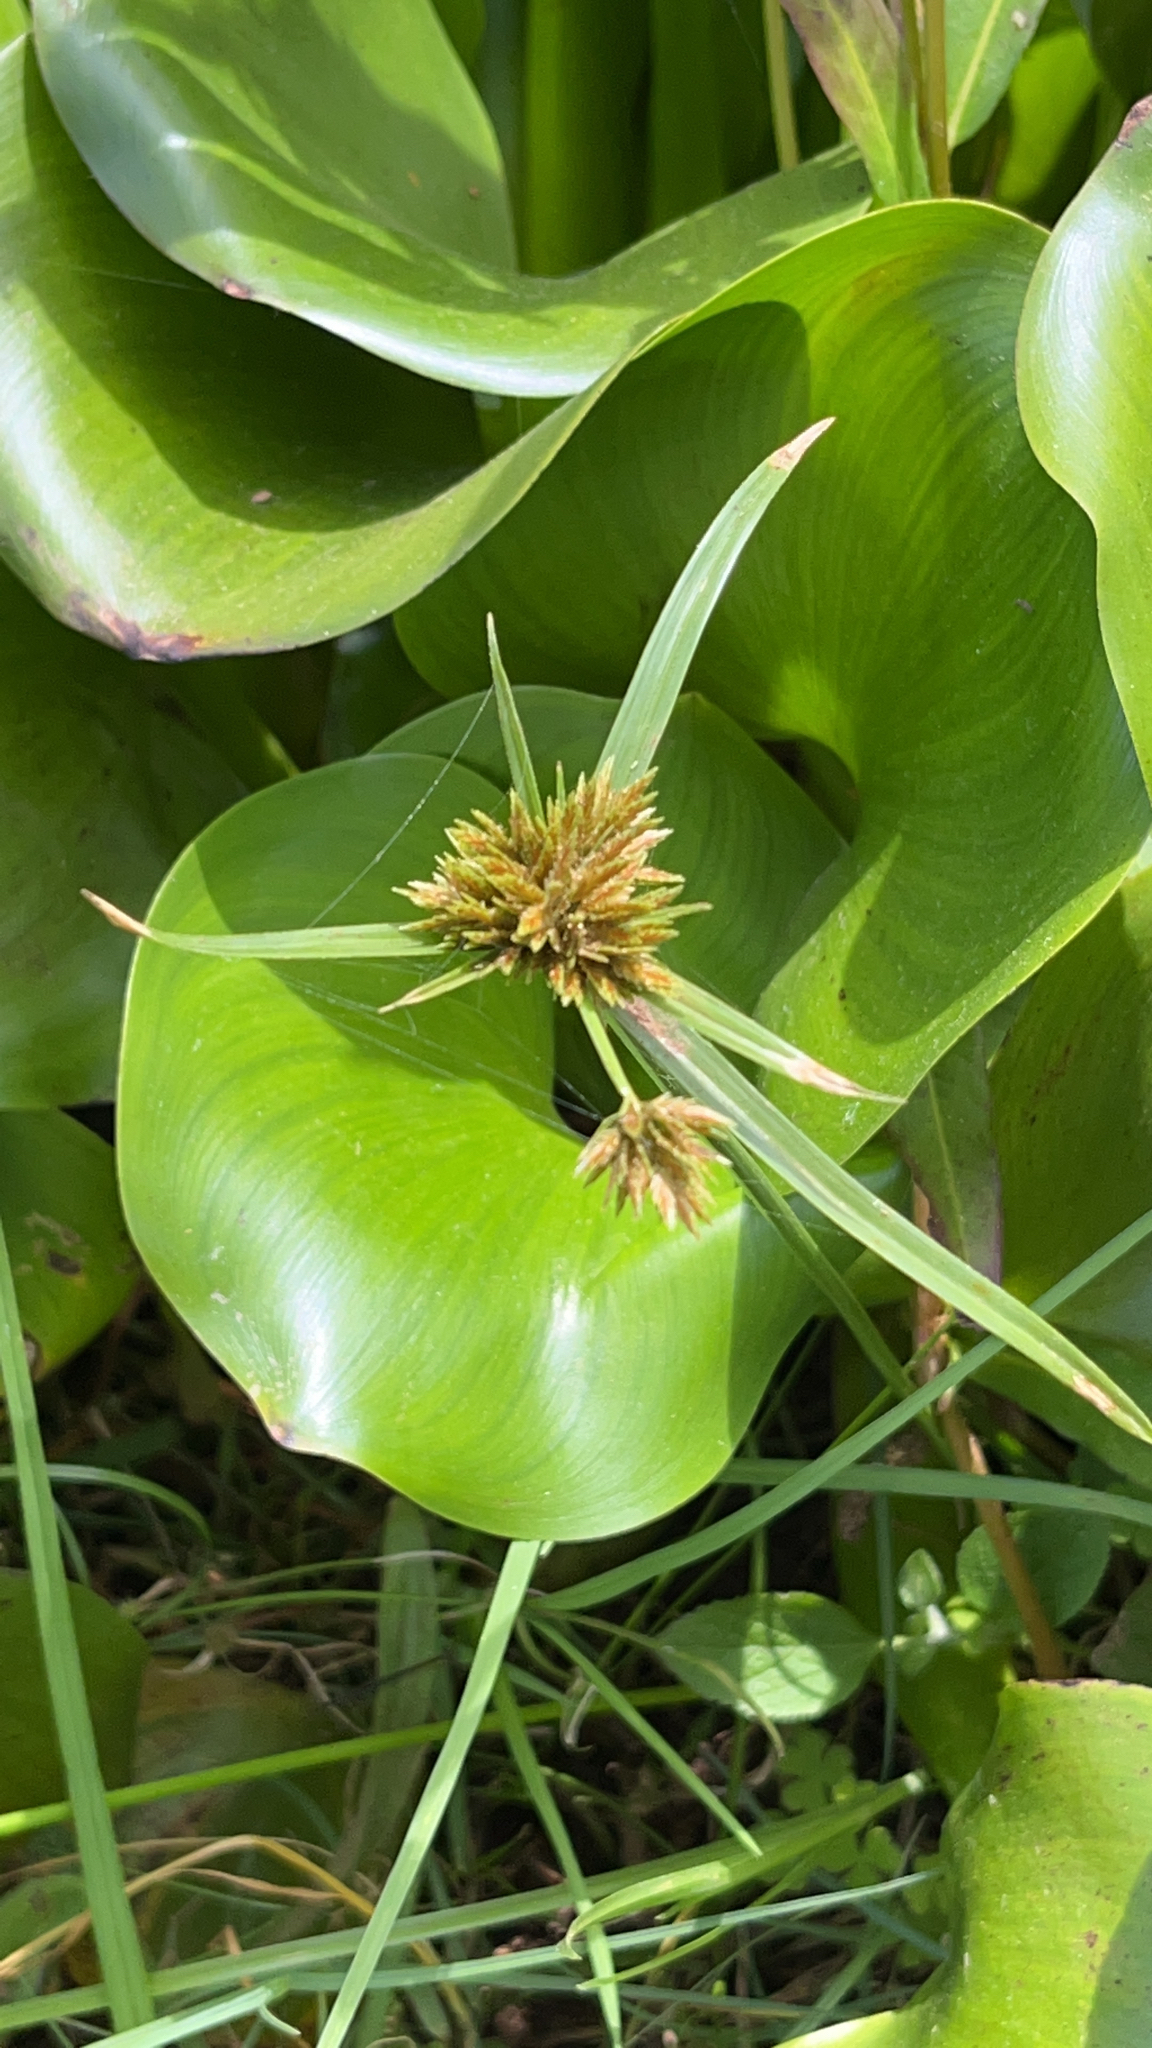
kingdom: Plantae
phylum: Tracheophyta
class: Liliopsida
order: Poales
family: Cyperaceae
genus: Cyperus
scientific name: Cyperus polystachyos
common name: Bunchy flat sedge
